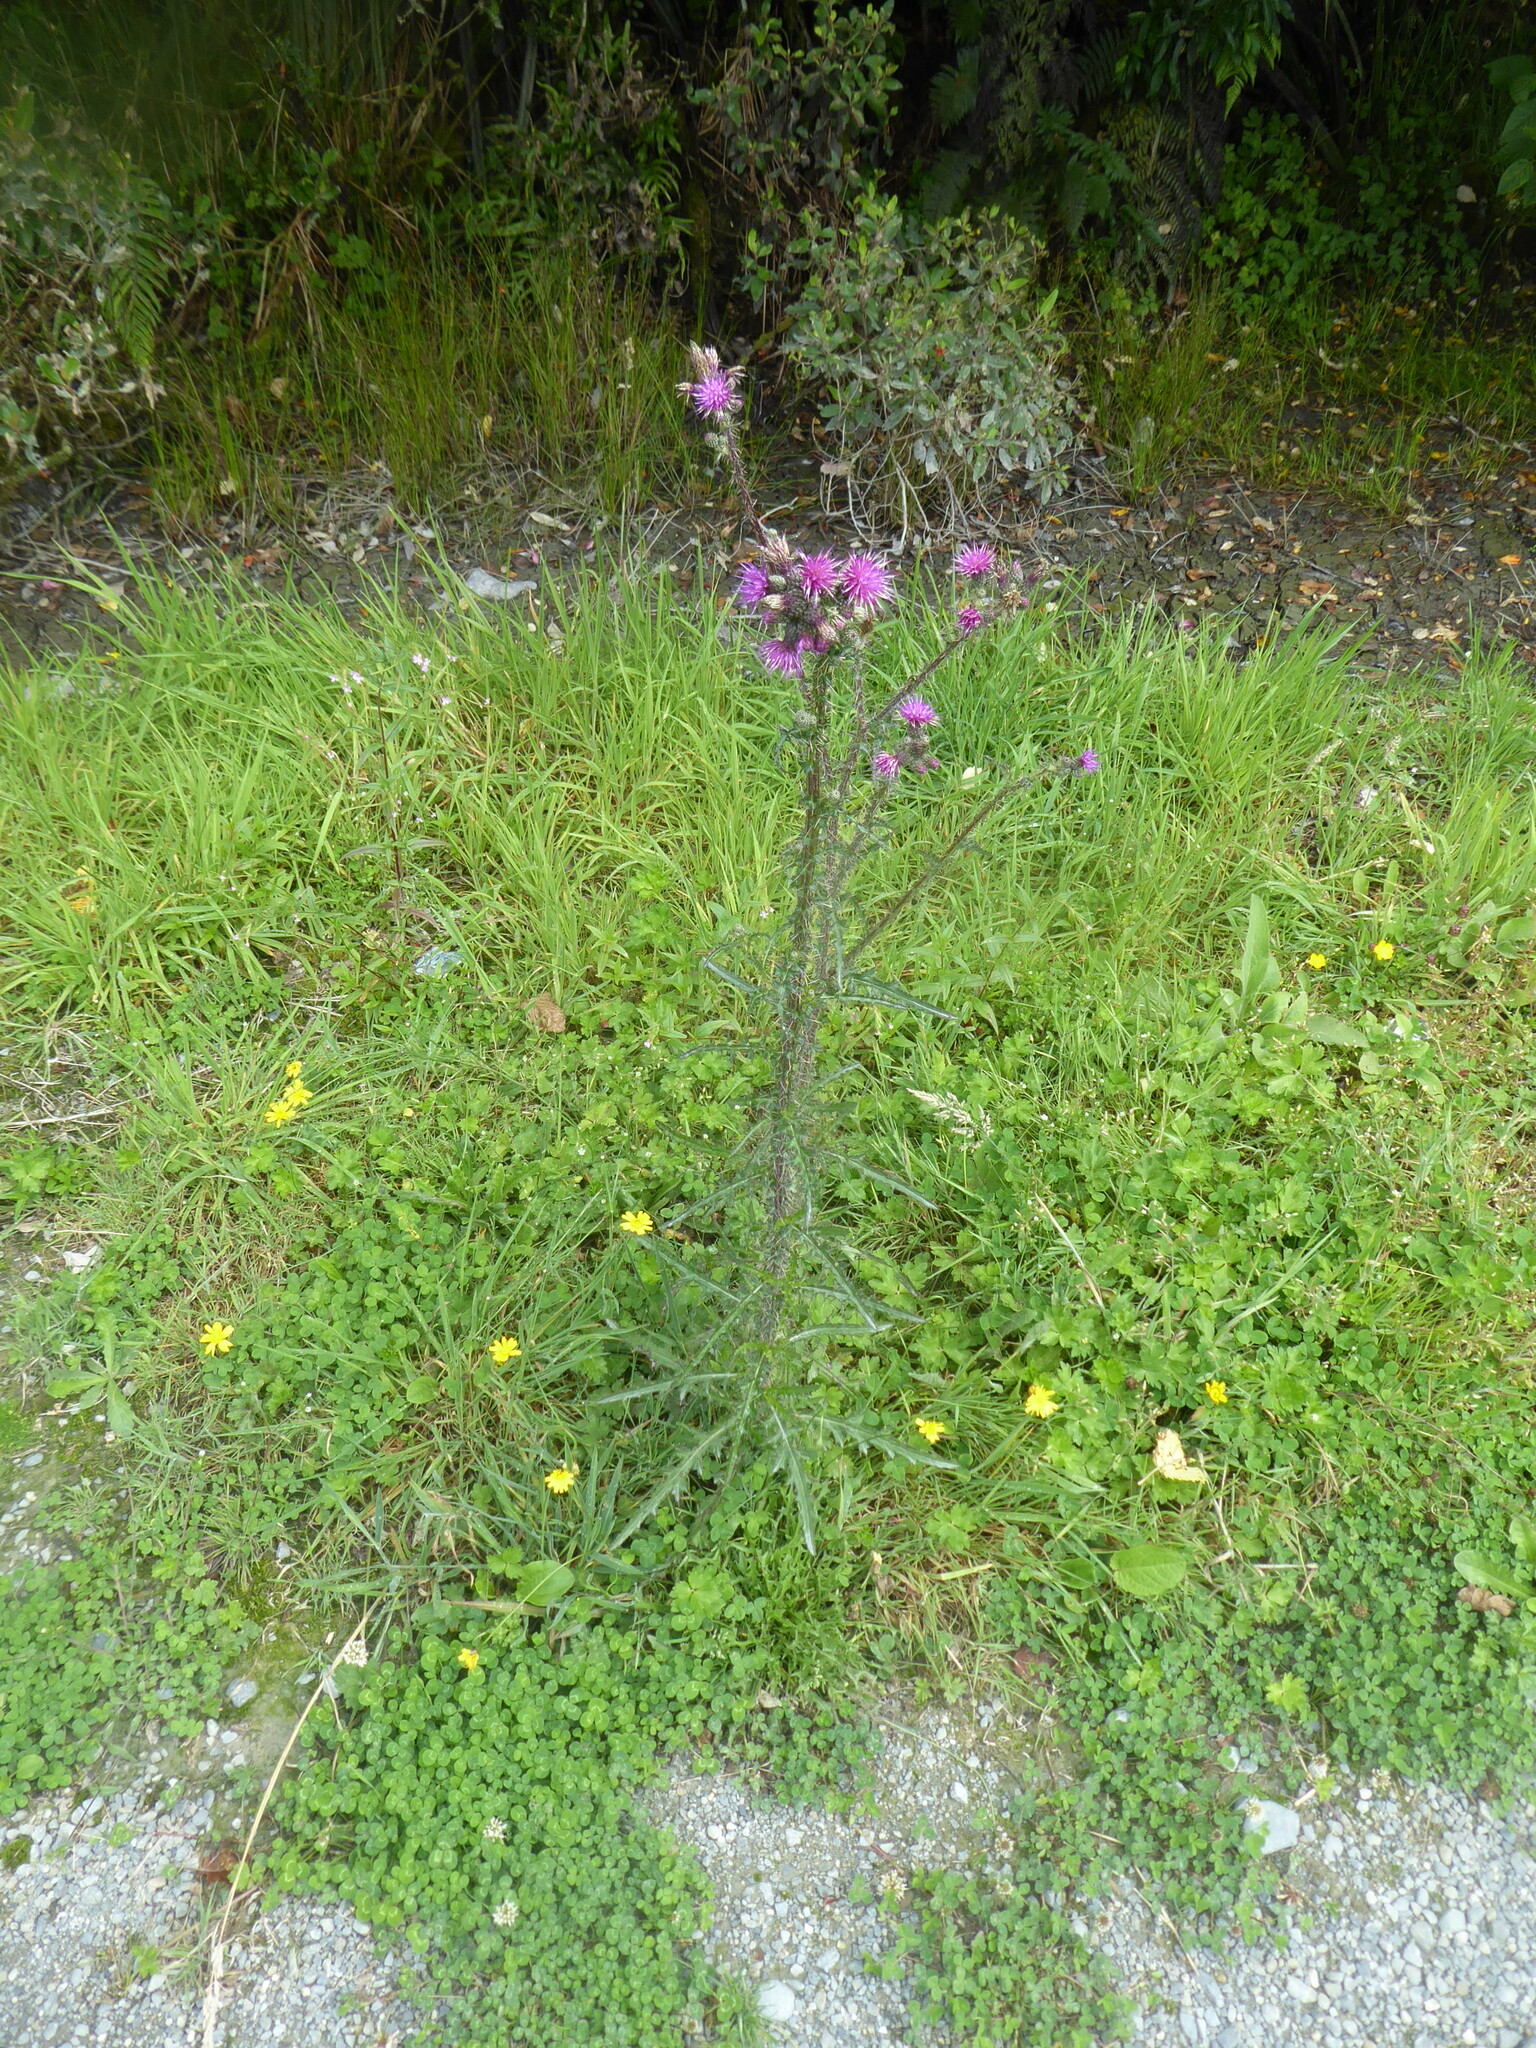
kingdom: Plantae
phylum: Tracheophyta
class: Magnoliopsida
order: Asterales
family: Asteraceae
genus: Cirsium
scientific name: Cirsium palustre
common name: Marsh thistle
